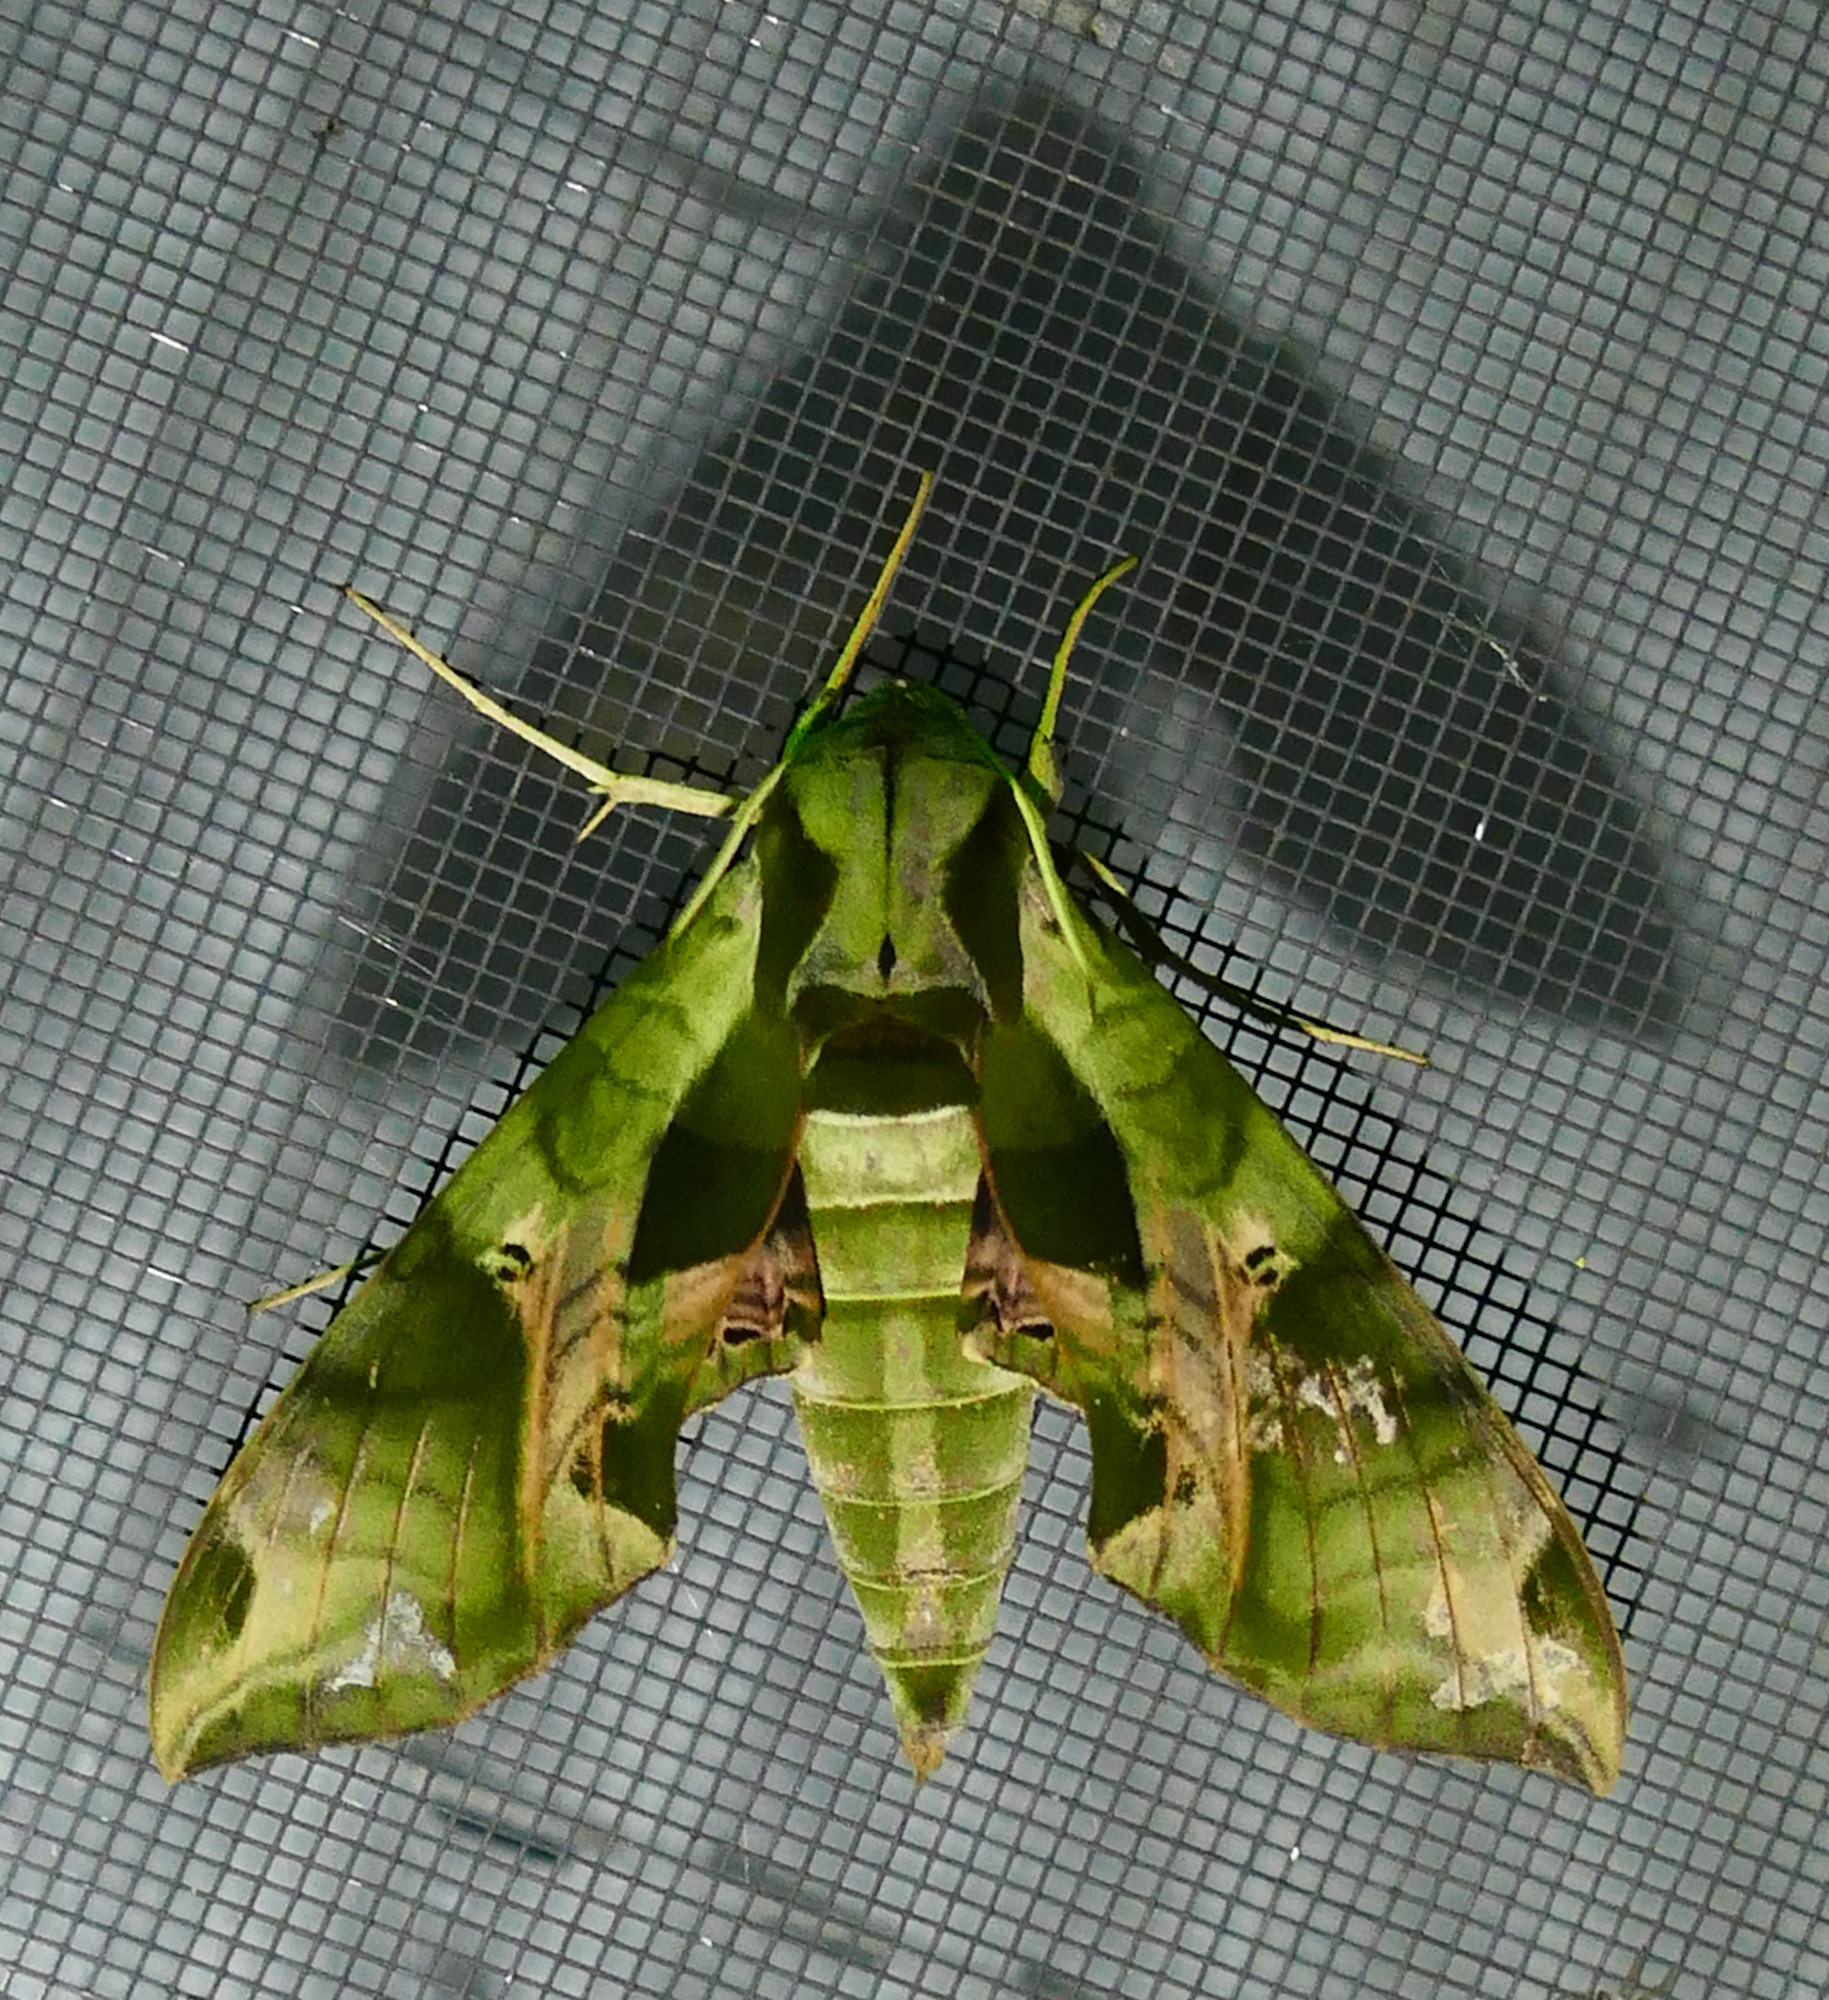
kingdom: Animalia
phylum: Arthropoda
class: Insecta
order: Lepidoptera
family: Sphingidae
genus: Eumorpha
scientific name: Eumorpha pandorus
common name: Pandora sphinx
